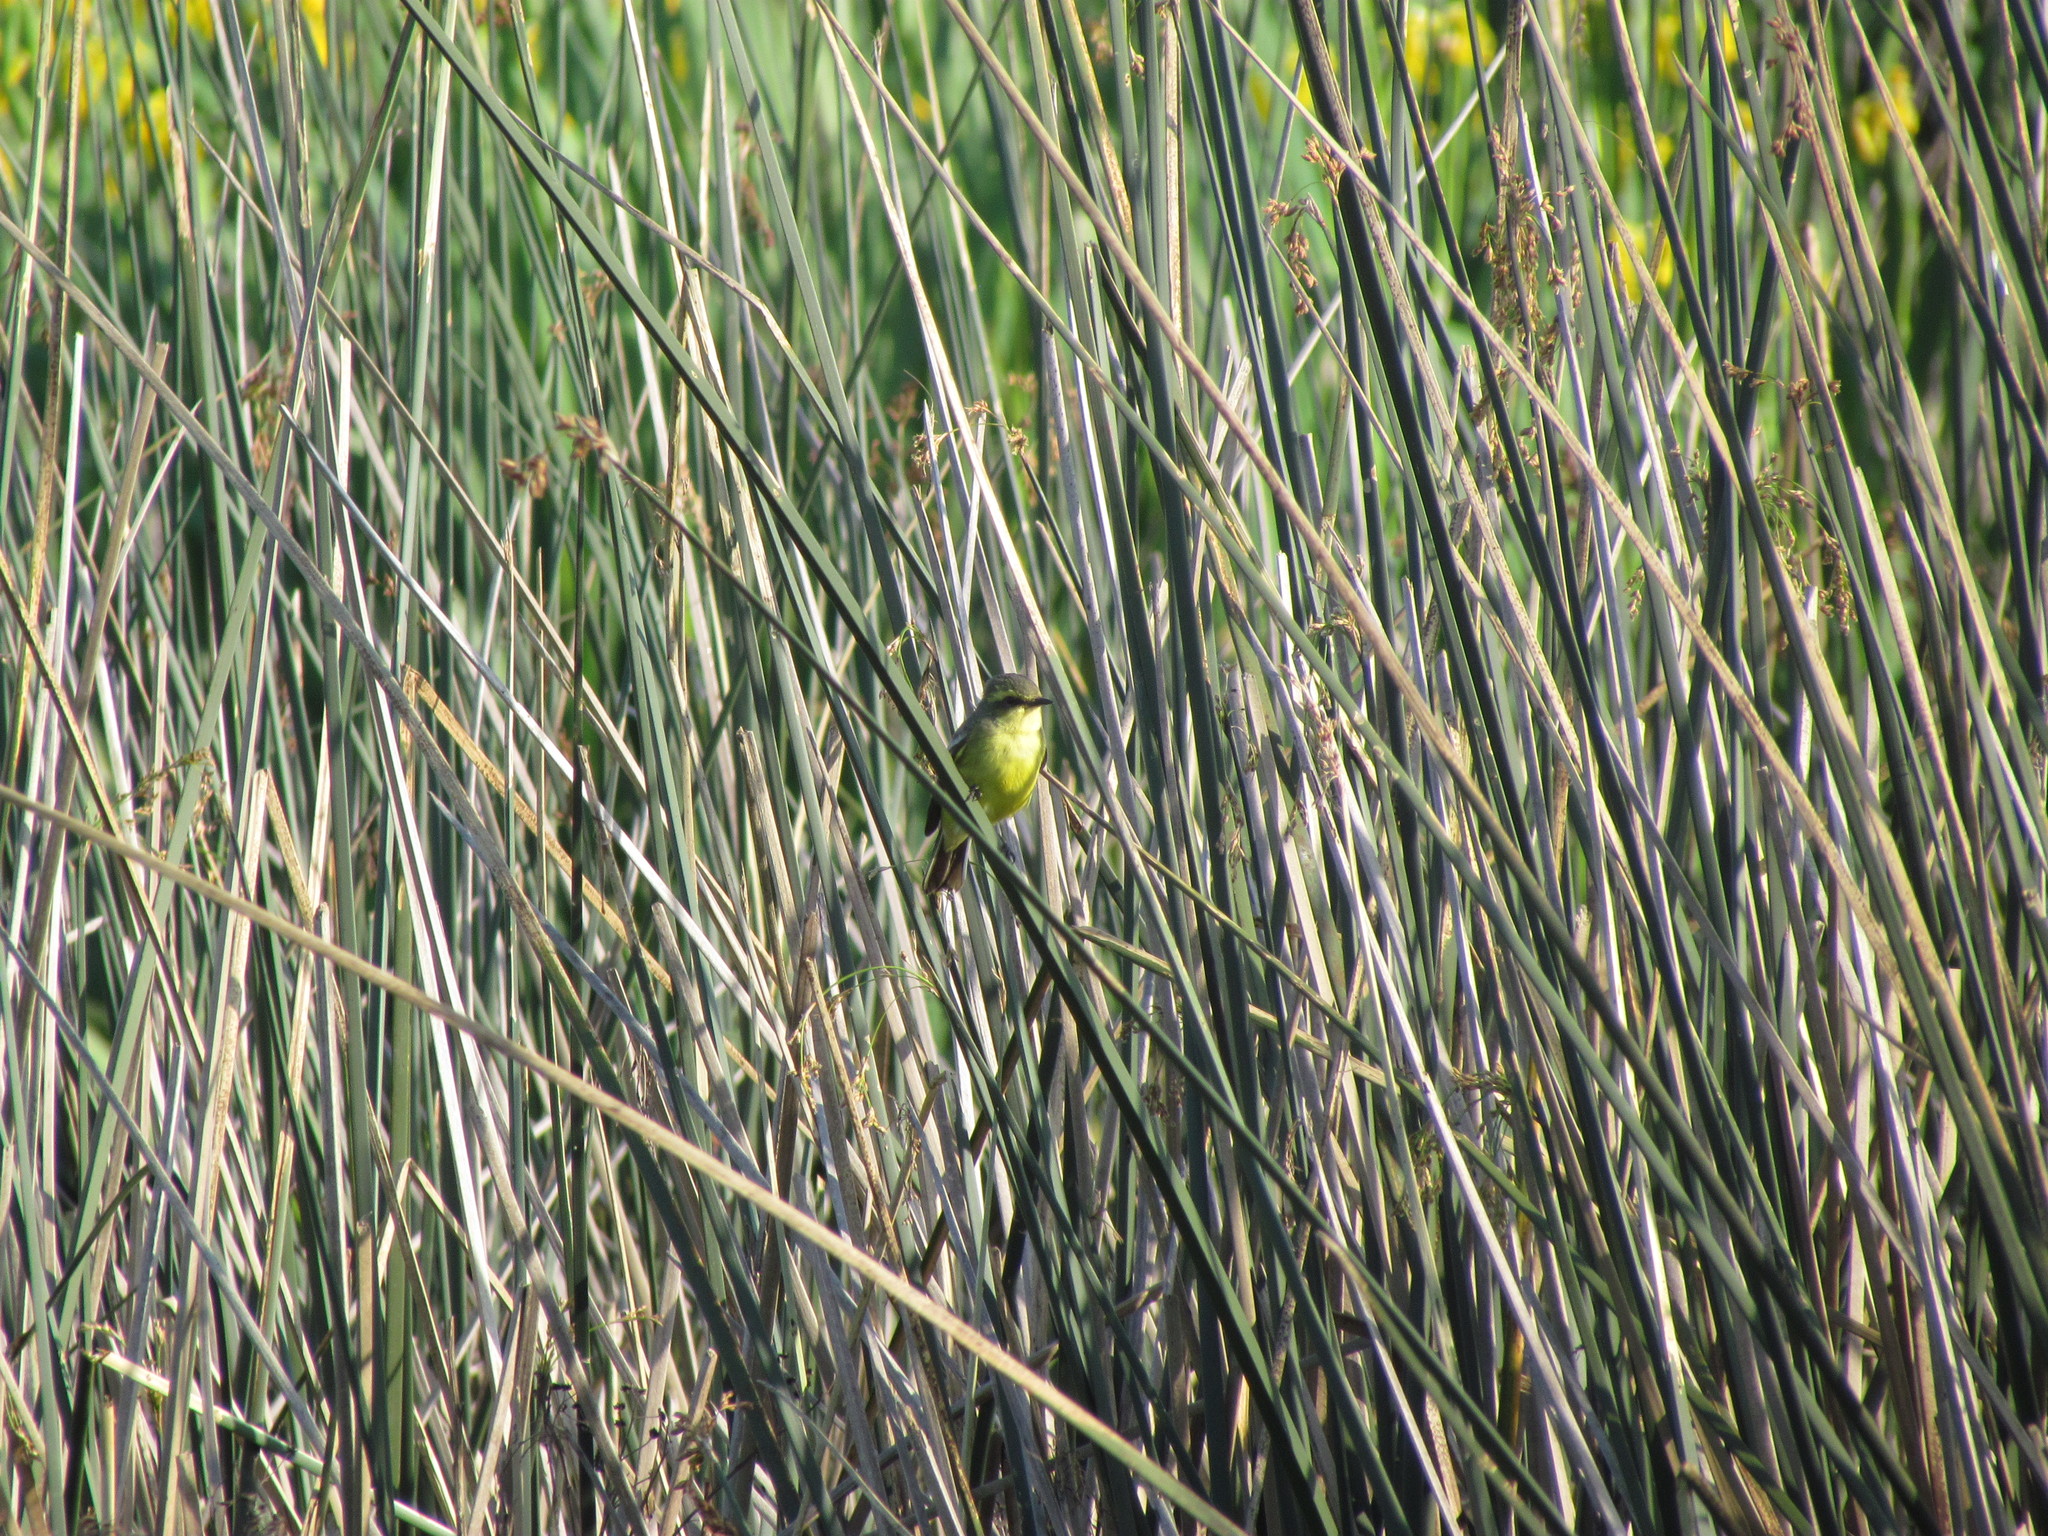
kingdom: Animalia
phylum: Chordata
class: Aves
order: Passeriformes
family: Tyrannidae
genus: Satrapa
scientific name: Satrapa icterophrys
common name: Yellow-browed tyrant
